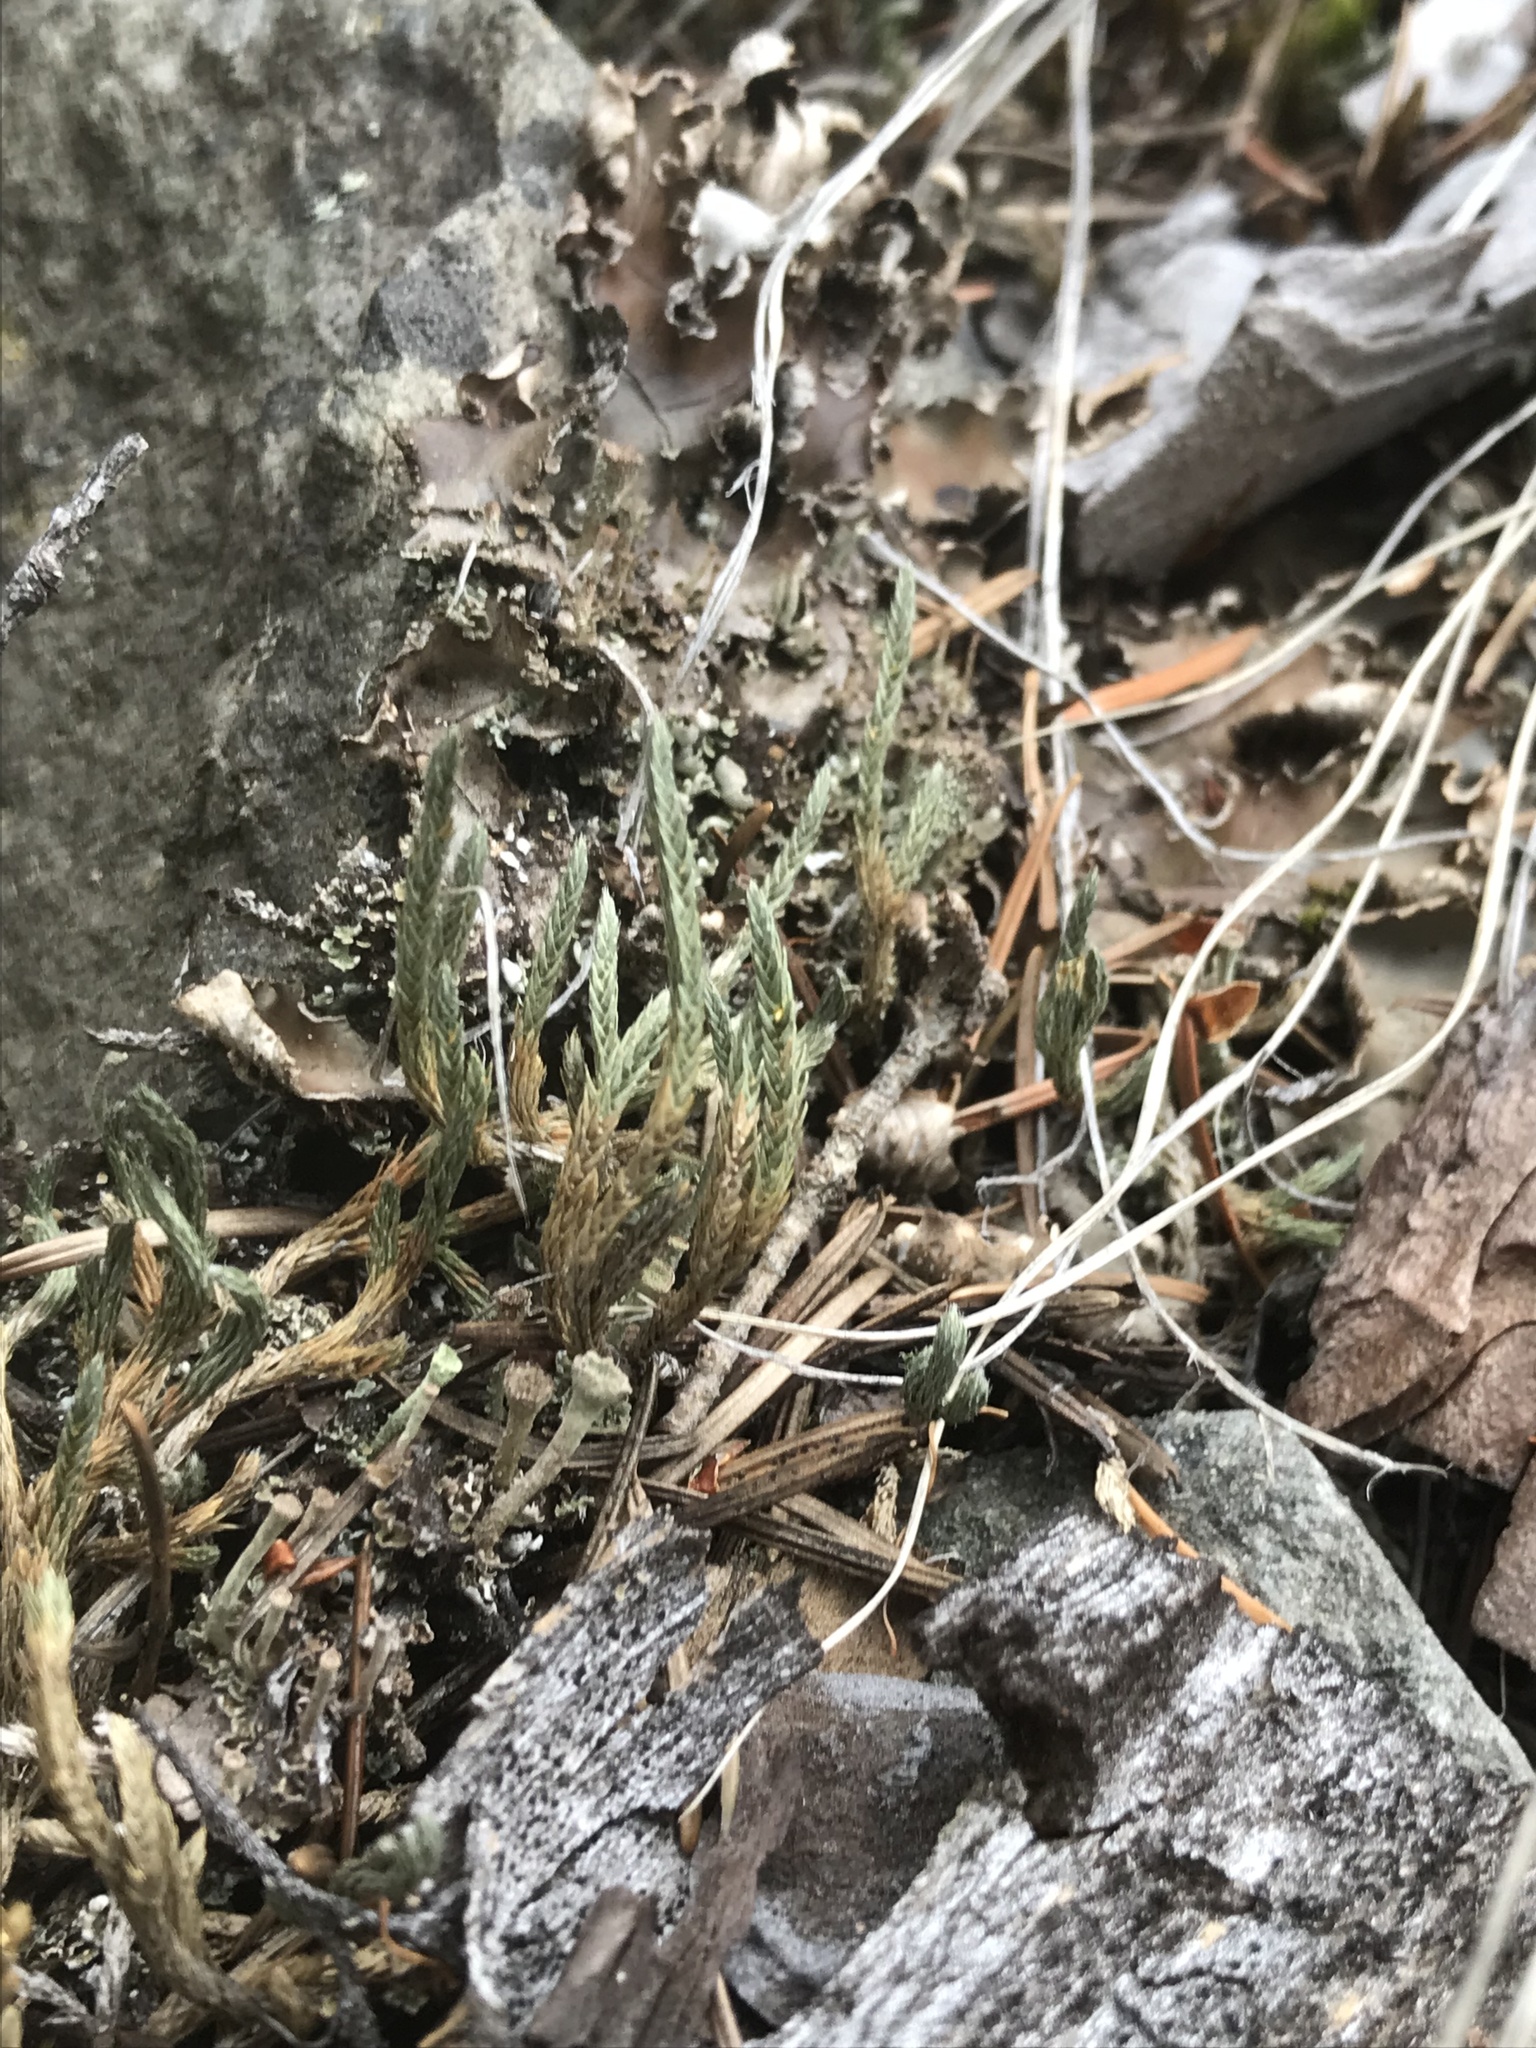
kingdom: Plantae
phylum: Tracheophyta
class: Lycopodiopsida
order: Selaginellales
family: Selaginellaceae
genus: Selaginella
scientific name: Selaginella wallacei
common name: Wallace's selaginella
